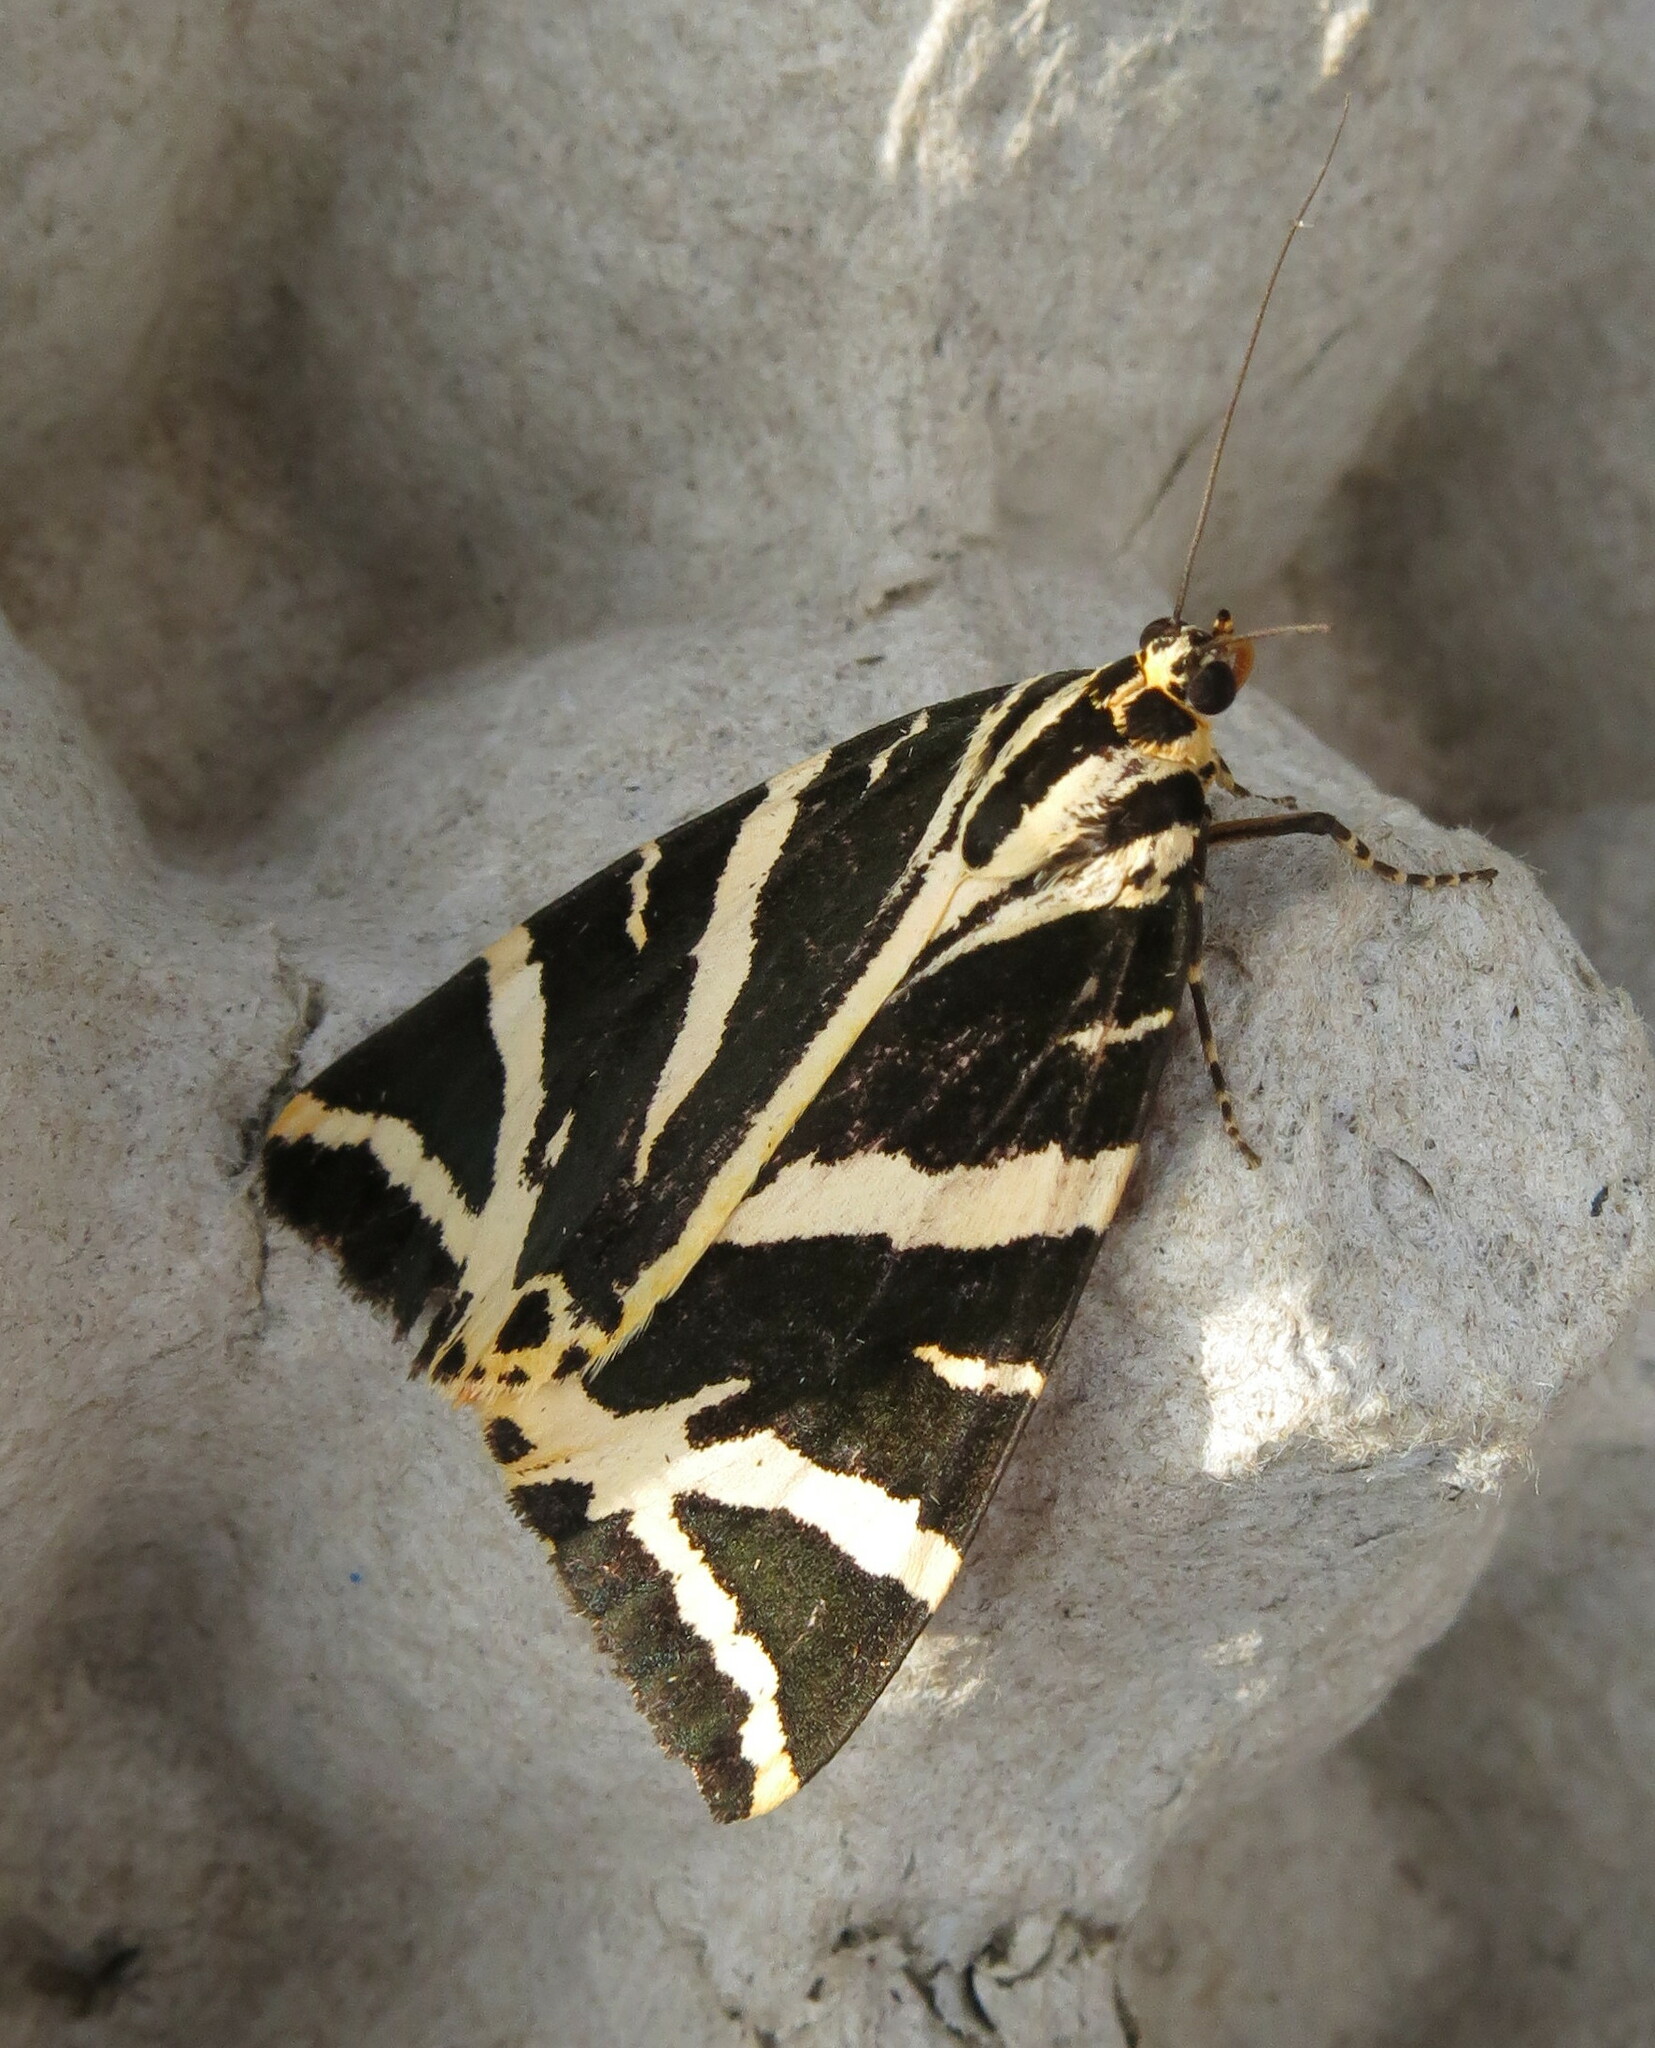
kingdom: Animalia
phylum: Arthropoda
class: Insecta
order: Lepidoptera
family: Erebidae
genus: Euplagia
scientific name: Euplagia quadripunctaria
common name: Jersey tiger
